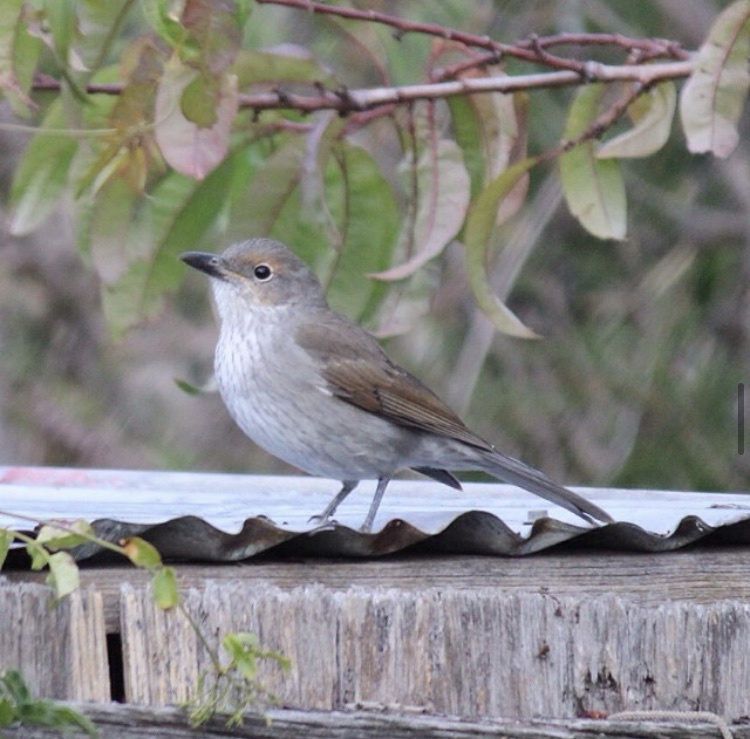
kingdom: Animalia
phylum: Chordata
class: Aves
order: Passeriformes
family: Pachycephalidae
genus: Colluricincla
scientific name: Colluricincla harmonica
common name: Grey shrikethrush
